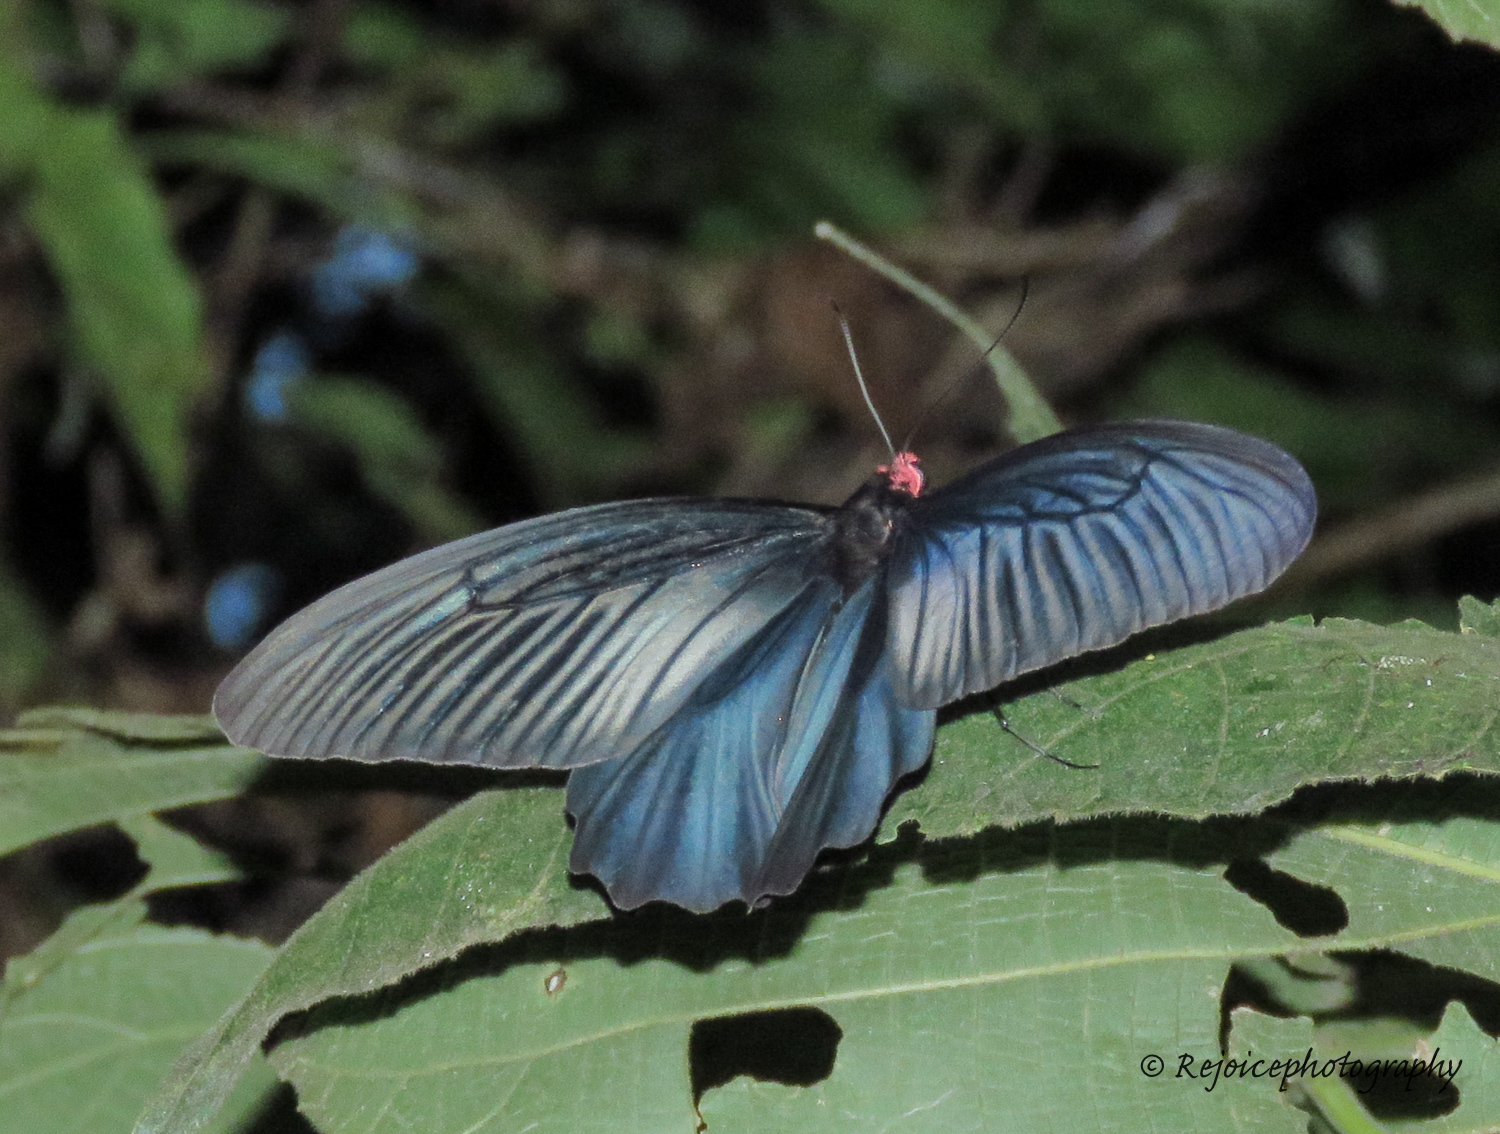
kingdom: Animalia
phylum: Arthropoda
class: Insecta
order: Lepidoptera
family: Papilionidae
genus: Atrophaneura
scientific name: Atrophaneura varuna
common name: Common batwing
